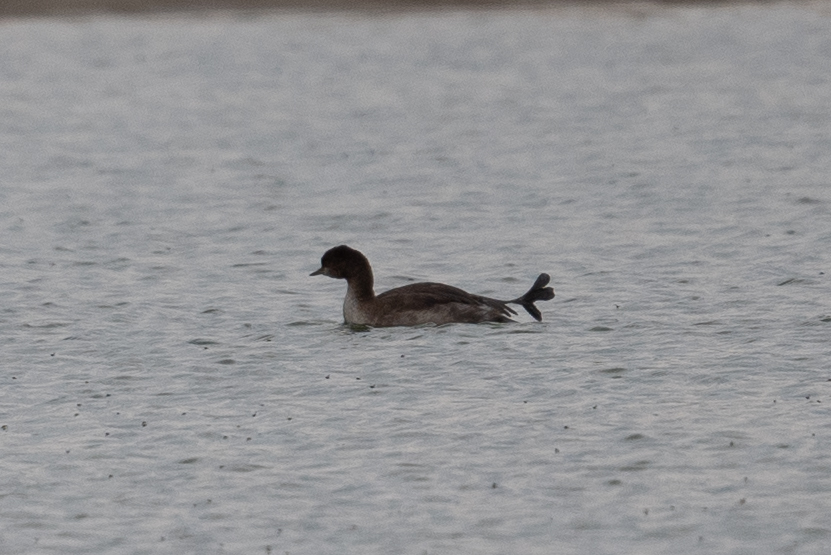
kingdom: Animalia
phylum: Chordata
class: Aves
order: Podicipediformes
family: Podicipedidae
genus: Podiceps
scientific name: Podiceps nigricollis
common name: Black-necked grebe
